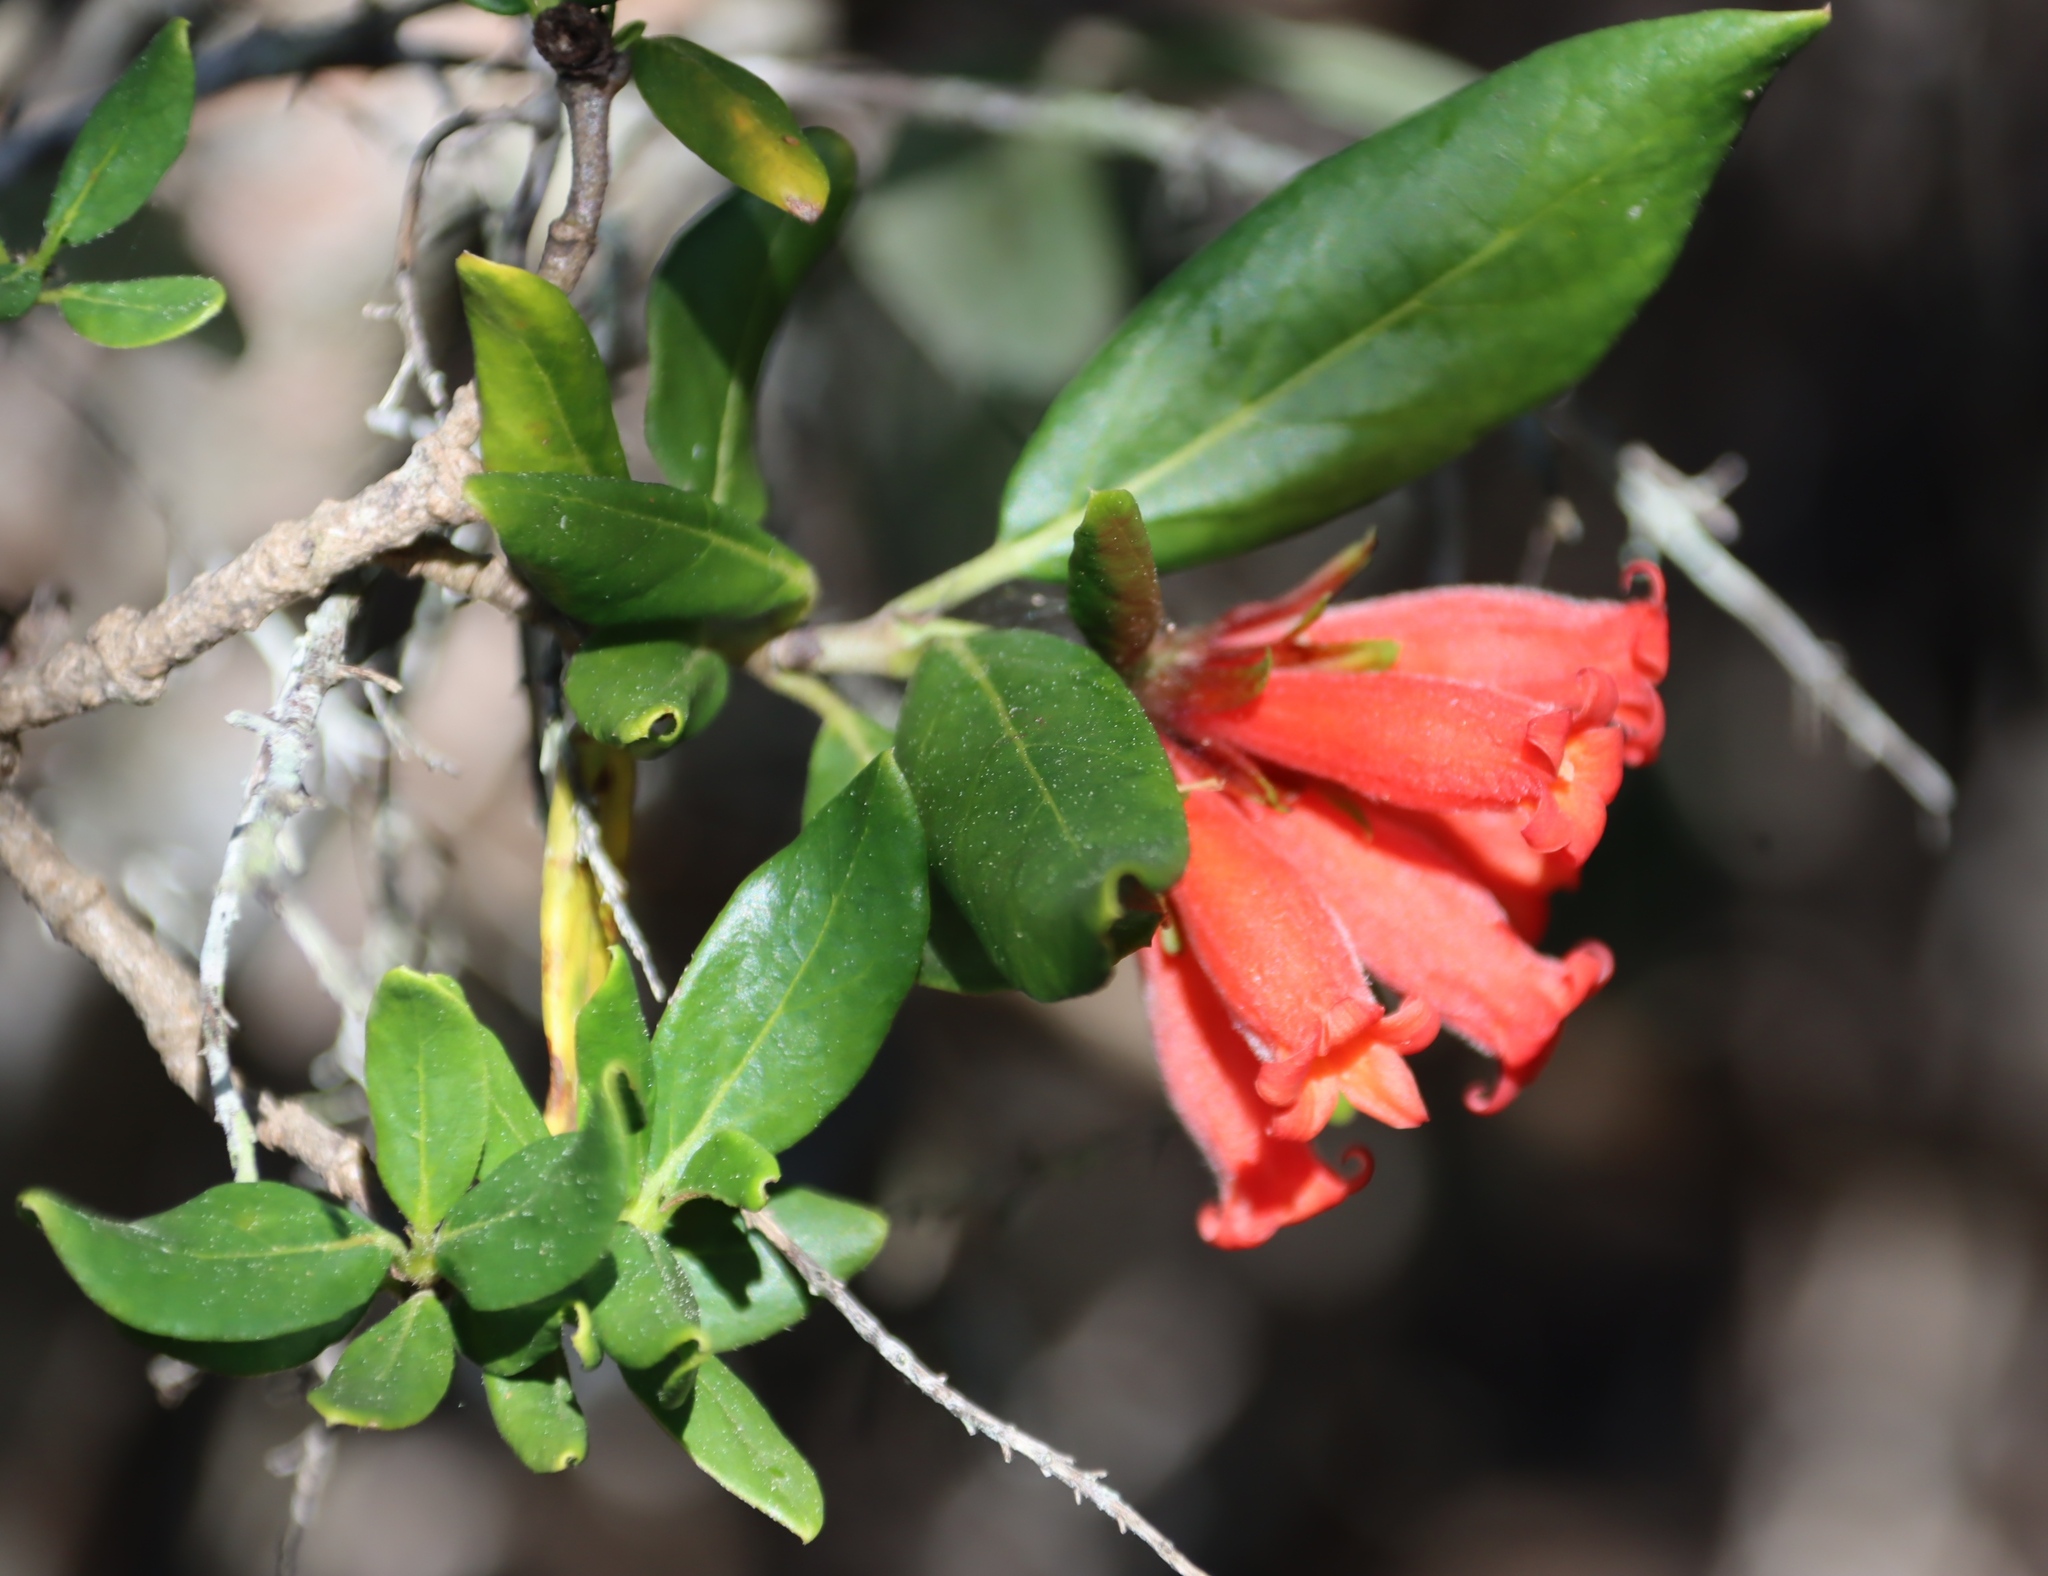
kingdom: Plantae
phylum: Tracheophyta
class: Magnoliopsida
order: Gentianales
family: Rubiaceae
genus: Burchellia
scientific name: Burchellia bubalina
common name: Wild pomegranate
